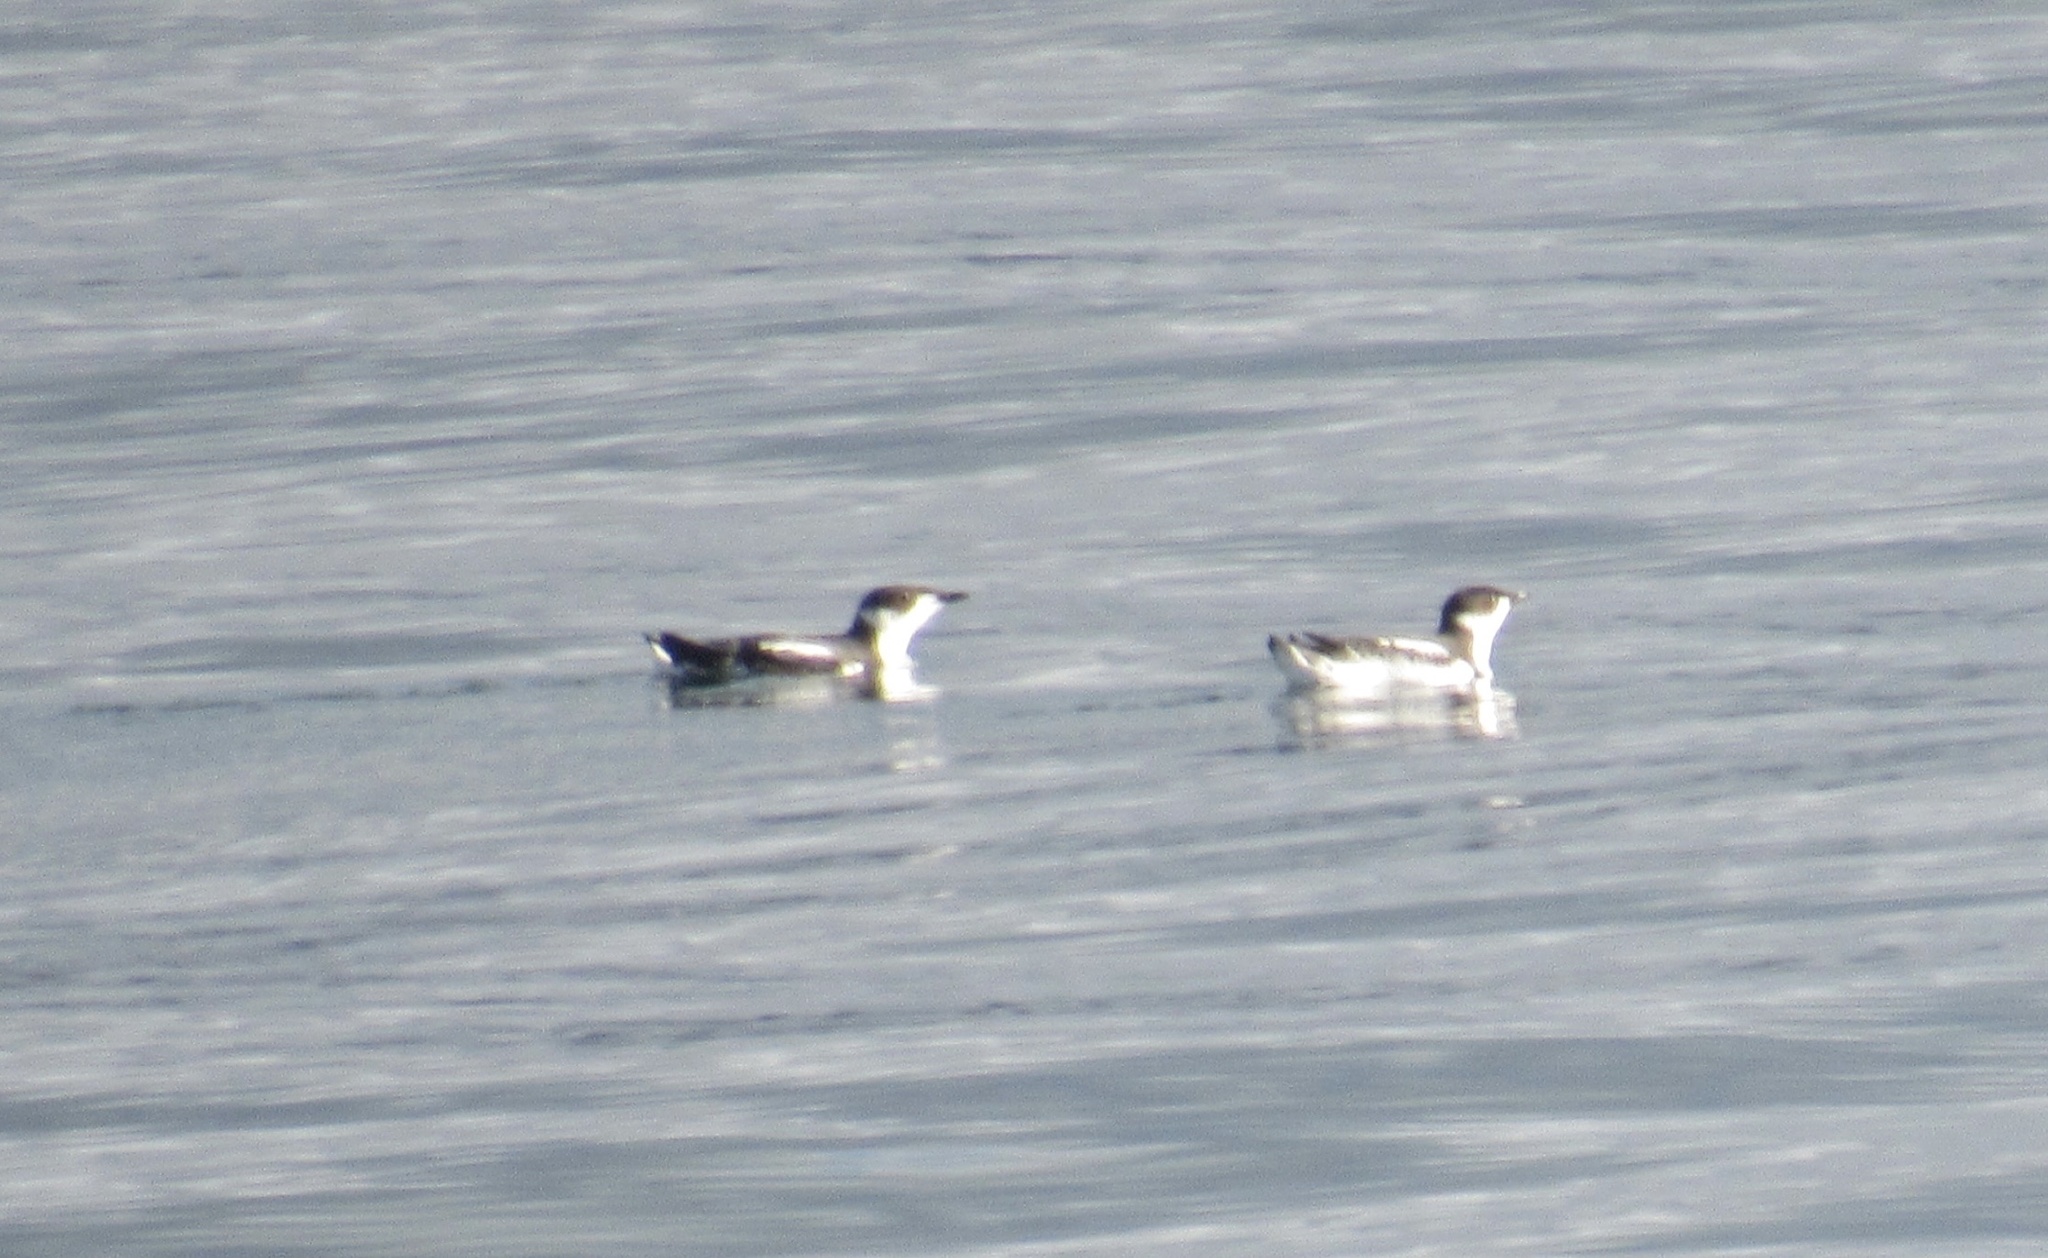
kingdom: Animalia
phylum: Chordata
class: Aves
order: Charadriiformes
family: Alcidae
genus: Brachyramphus
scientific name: Brachyramphus marmoratus
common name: Marbled murrelet
